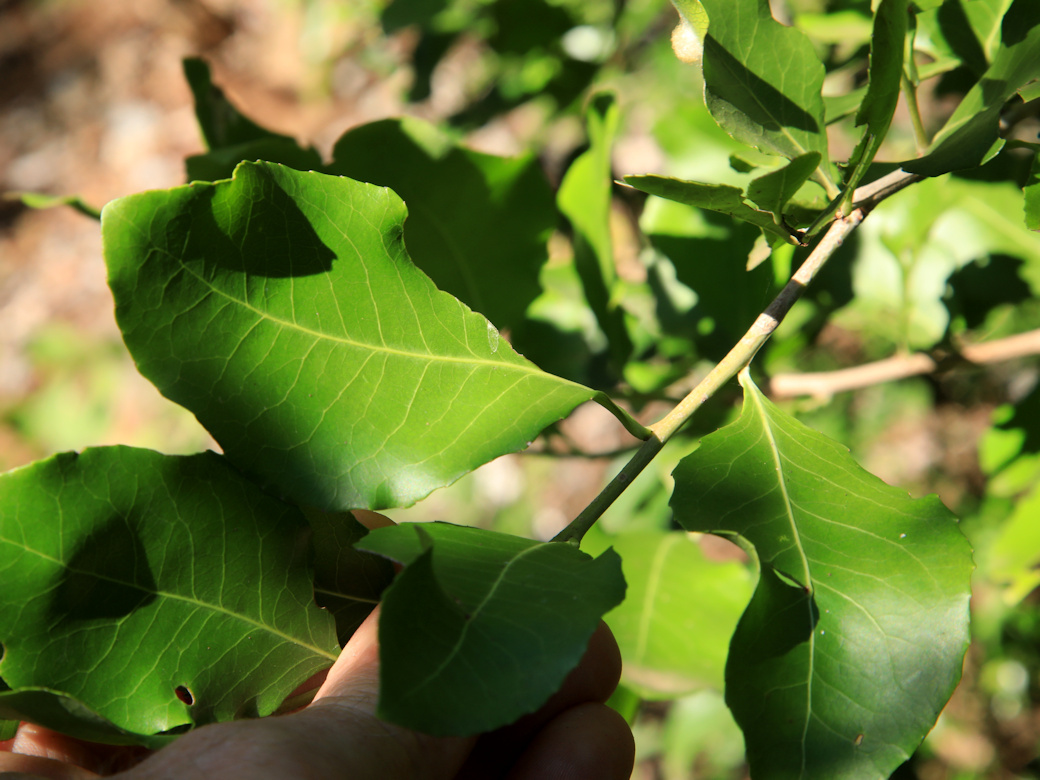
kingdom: Plantae
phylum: Tracheophyta
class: Magnoliopsida
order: Celastrales
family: Celastraceae
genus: Gymnosporia
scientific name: Gymnosporia undata
